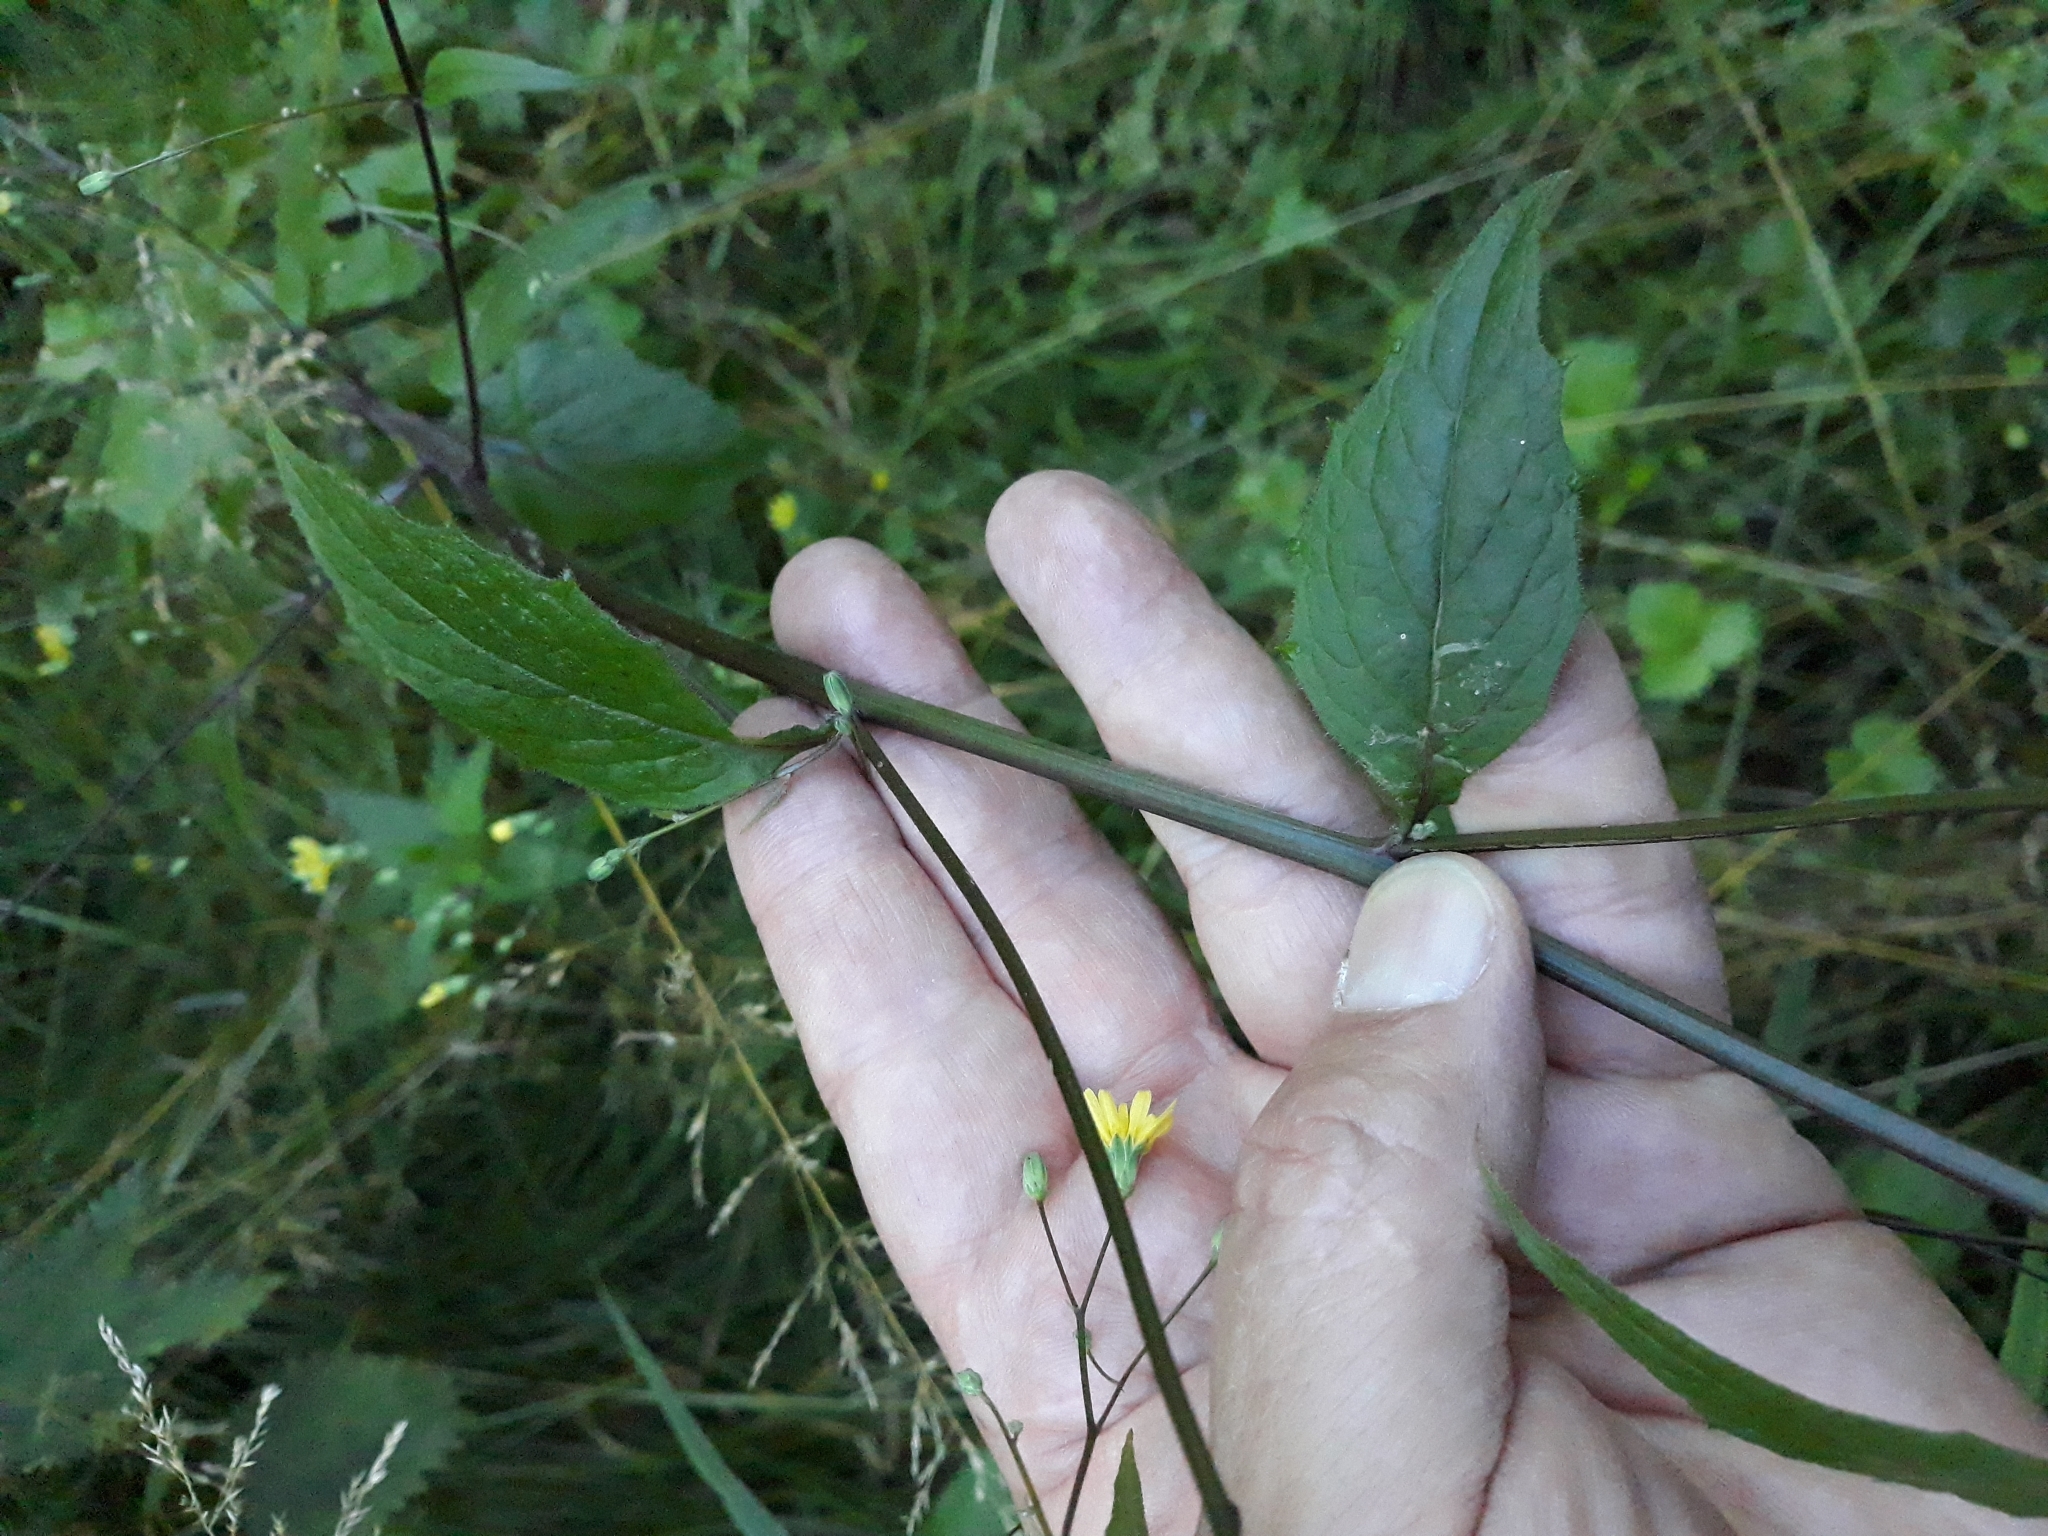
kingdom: Plantae
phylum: Tracheophyta
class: Magnoliopsida
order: Asterales
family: Asteraceae
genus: Lapsana
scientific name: Lapsana communis
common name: Nipplewort
